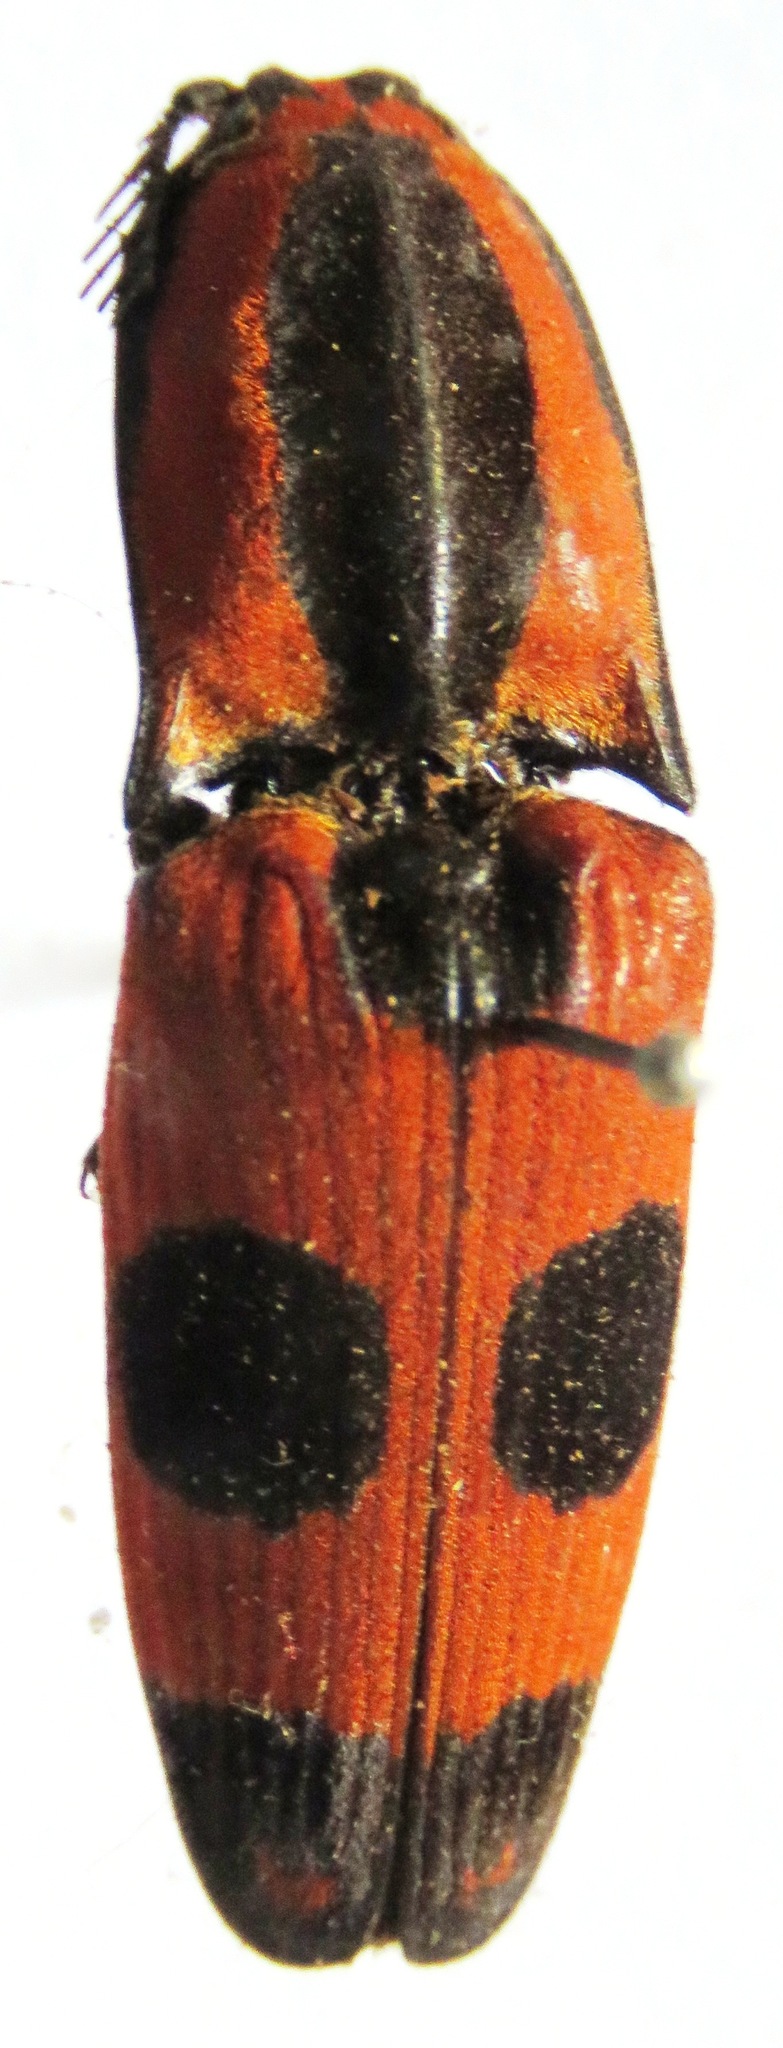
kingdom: Animalia
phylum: Arthropoda
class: Insecta
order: Coleoptera
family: Elateridae
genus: Neoabiphis
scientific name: Neoabiphis
